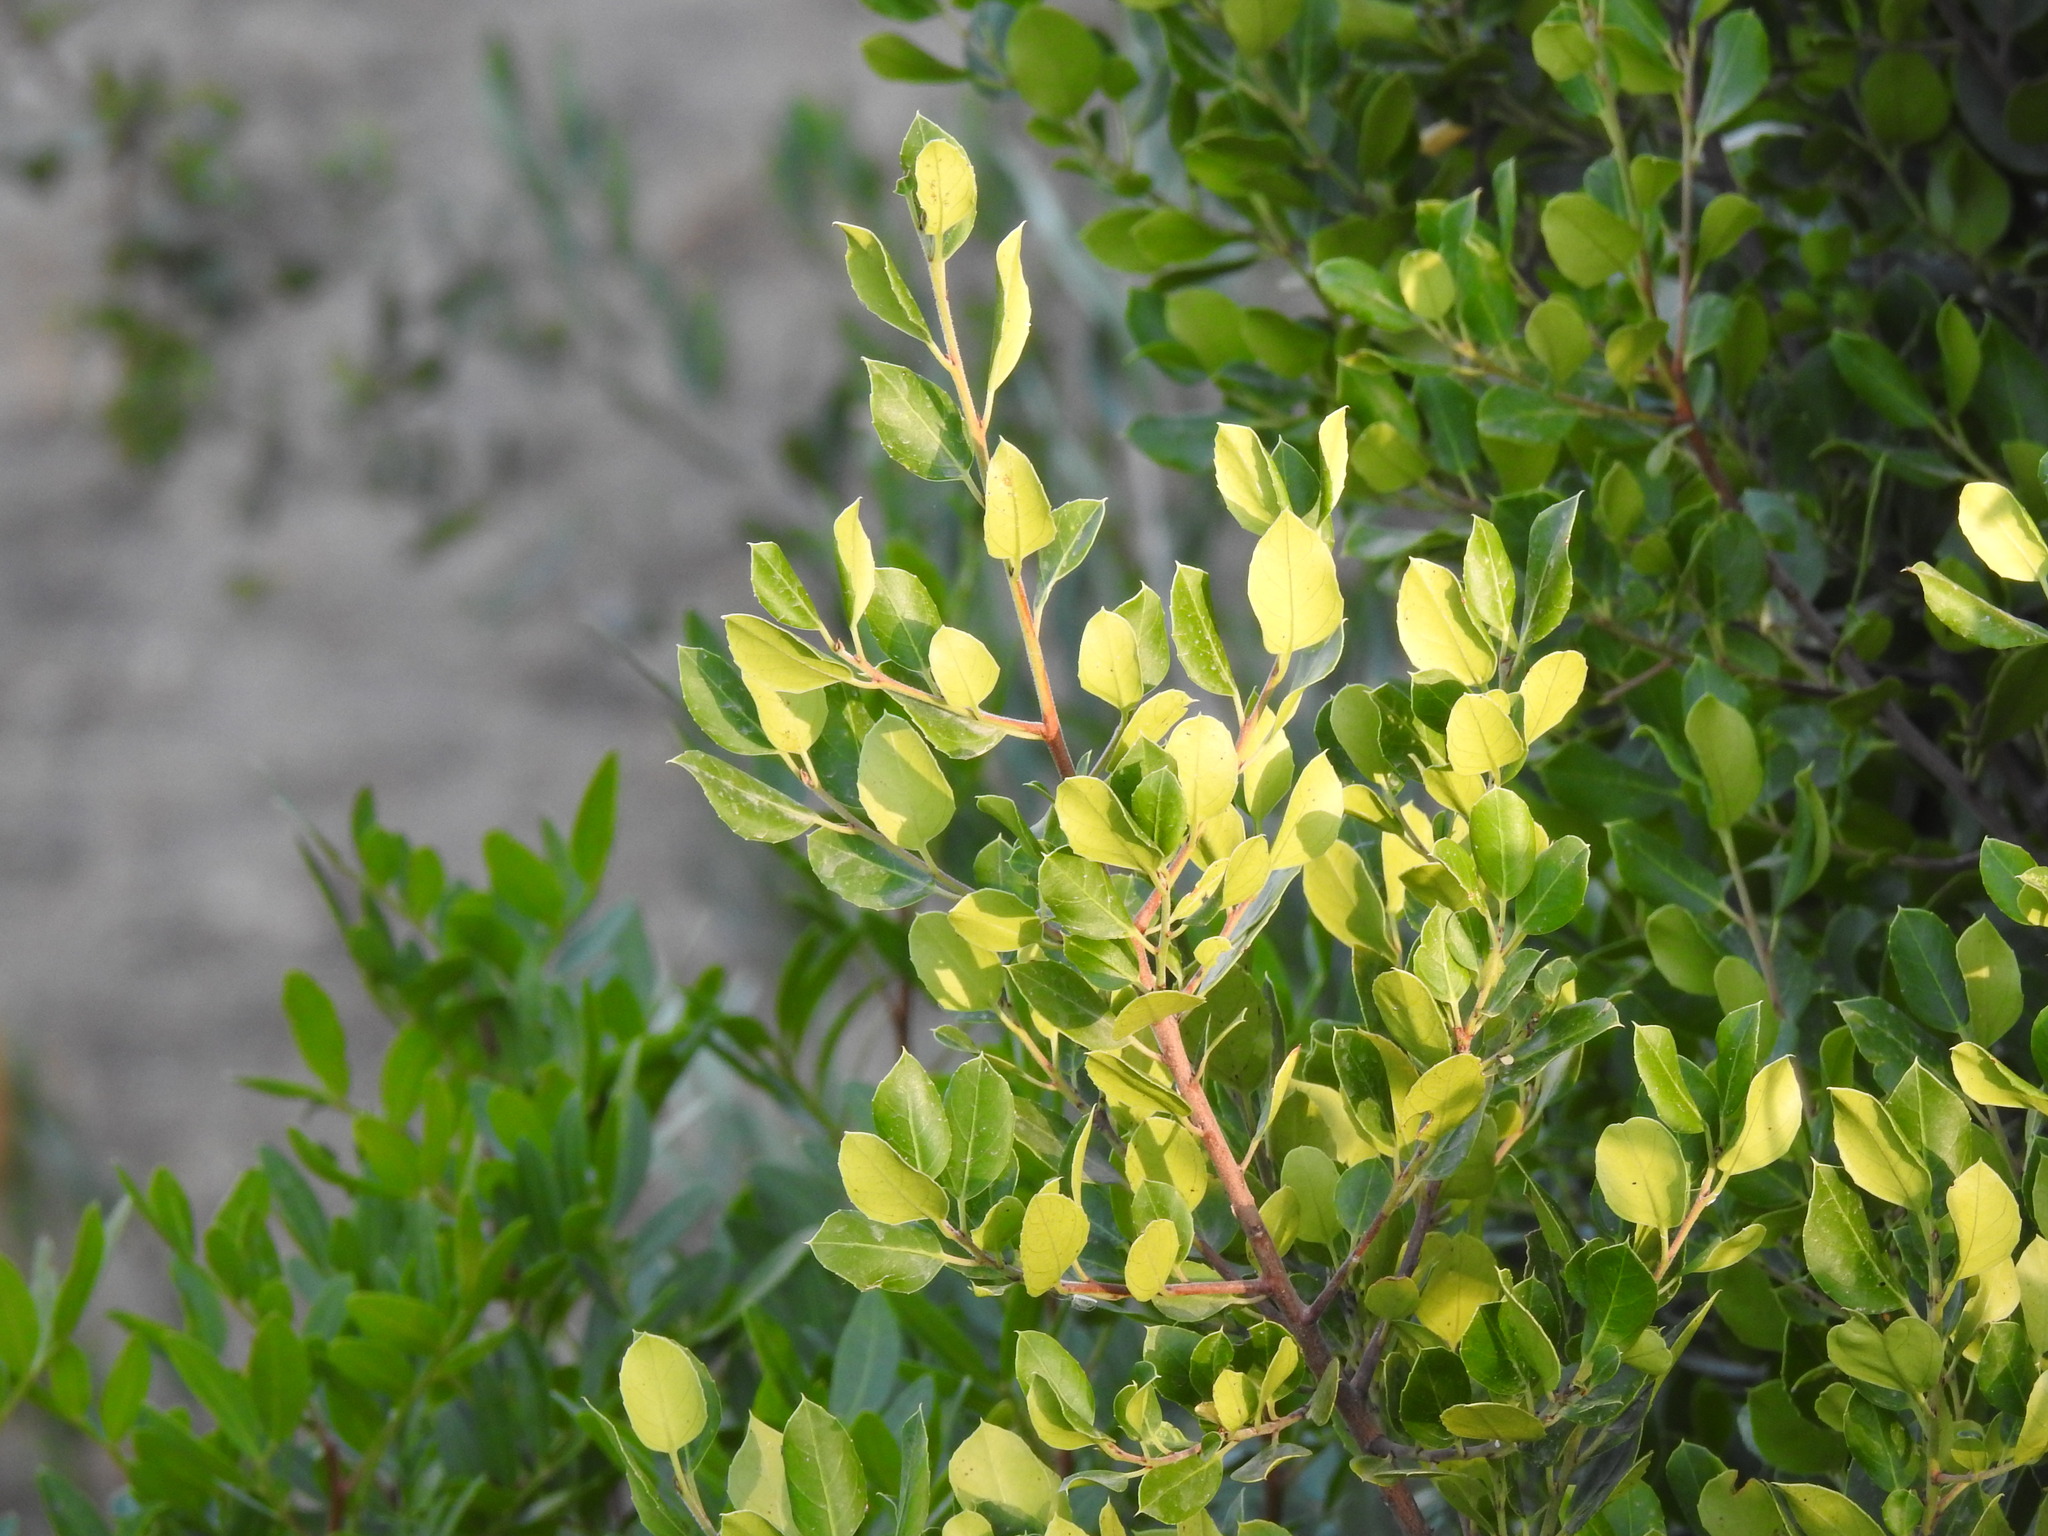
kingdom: Plantae
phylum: Tracheophyta
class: Magnoliopsida
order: Rosales
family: Rhamnaceae
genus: Rhamnus
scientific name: Rhamnus alaternus
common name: Mediterranean buckthorn
